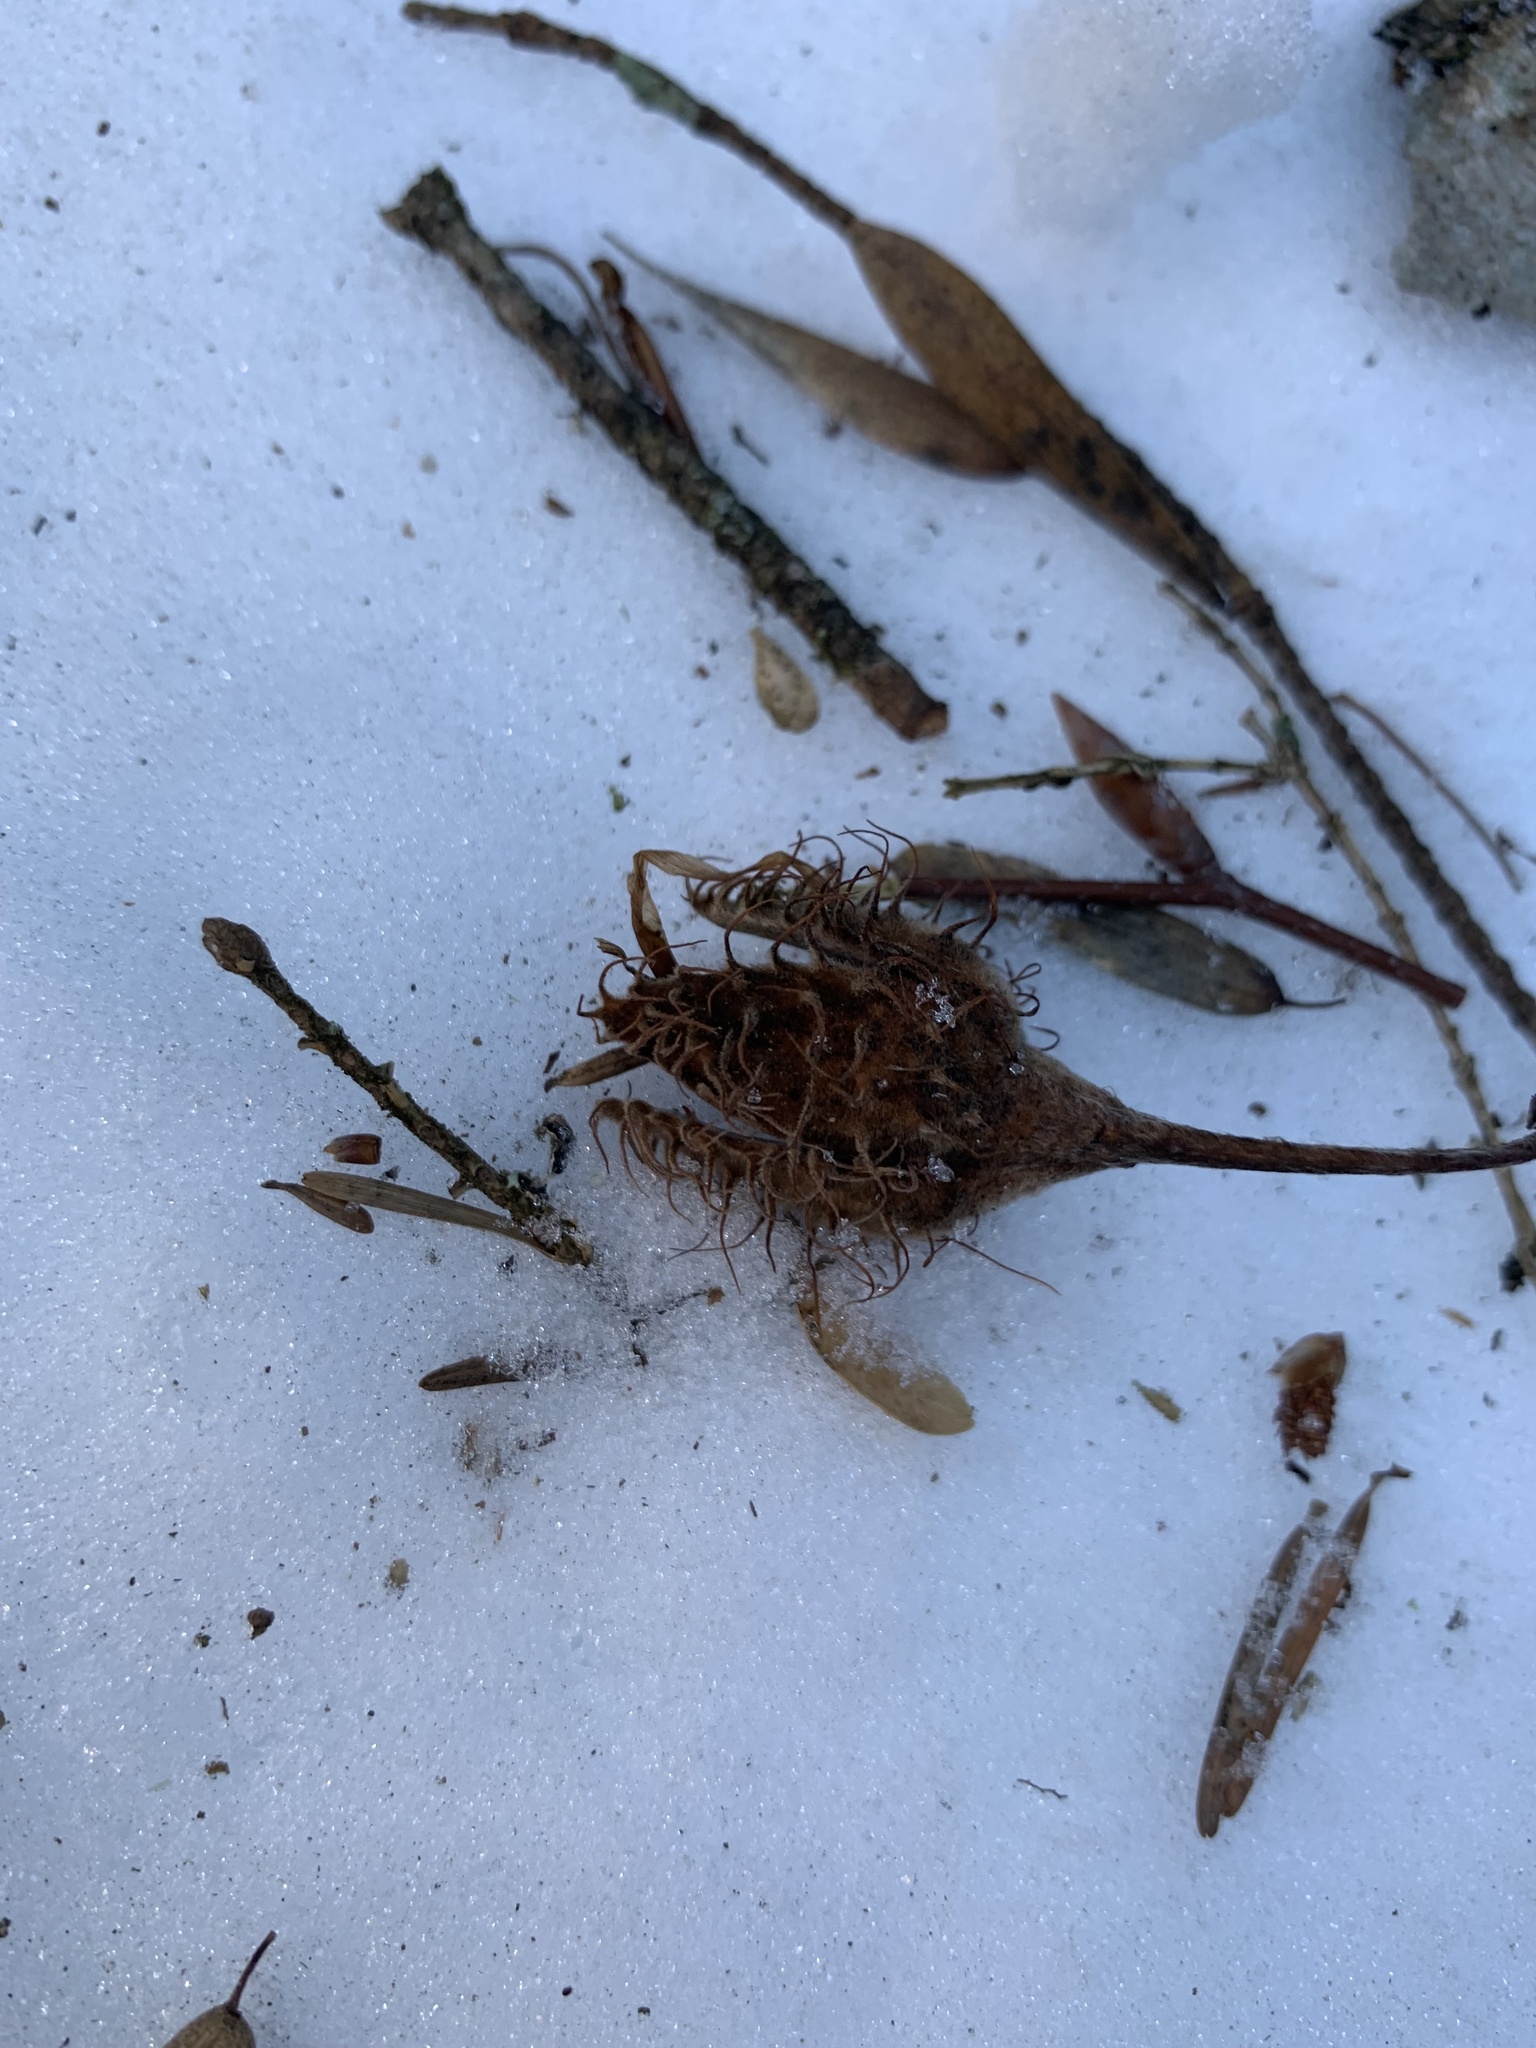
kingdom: Plantae
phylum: Tracheophyta
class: Magnoliopsida
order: Fagales
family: Fagaceae
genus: Fagus
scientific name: Fagus sylvatica
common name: Beech
